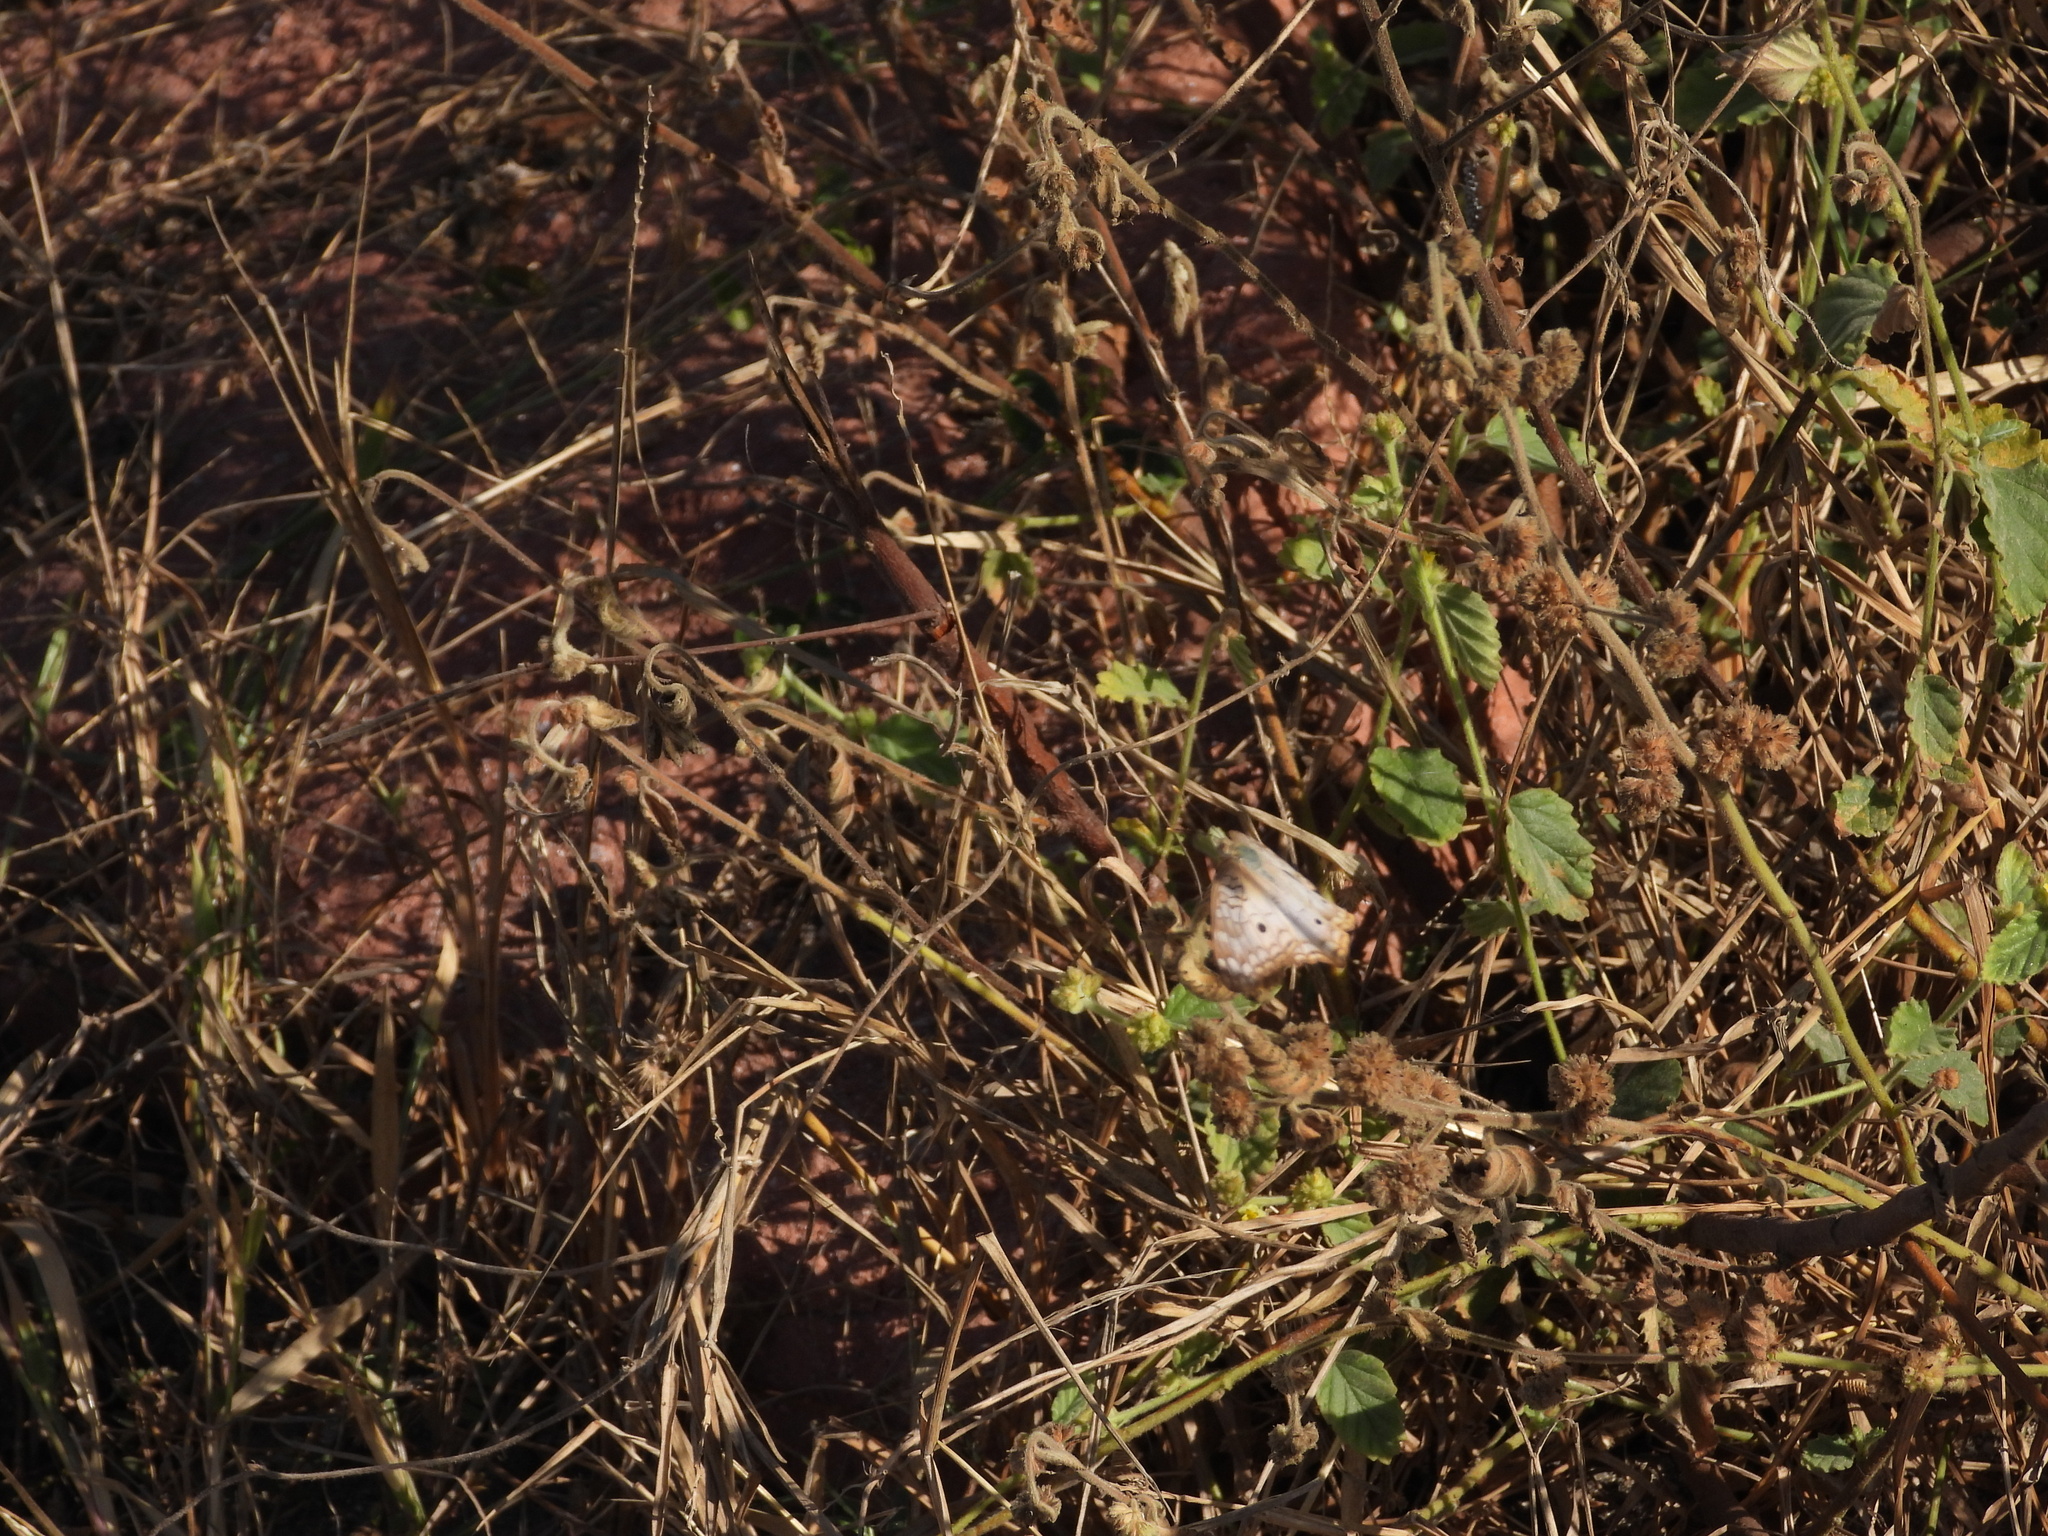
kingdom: Animalia
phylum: Arthropoda
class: Insecta
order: Lepidoptera
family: Nymphalidae
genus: Anartia
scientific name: Anartia jatrophae
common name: White peacock
